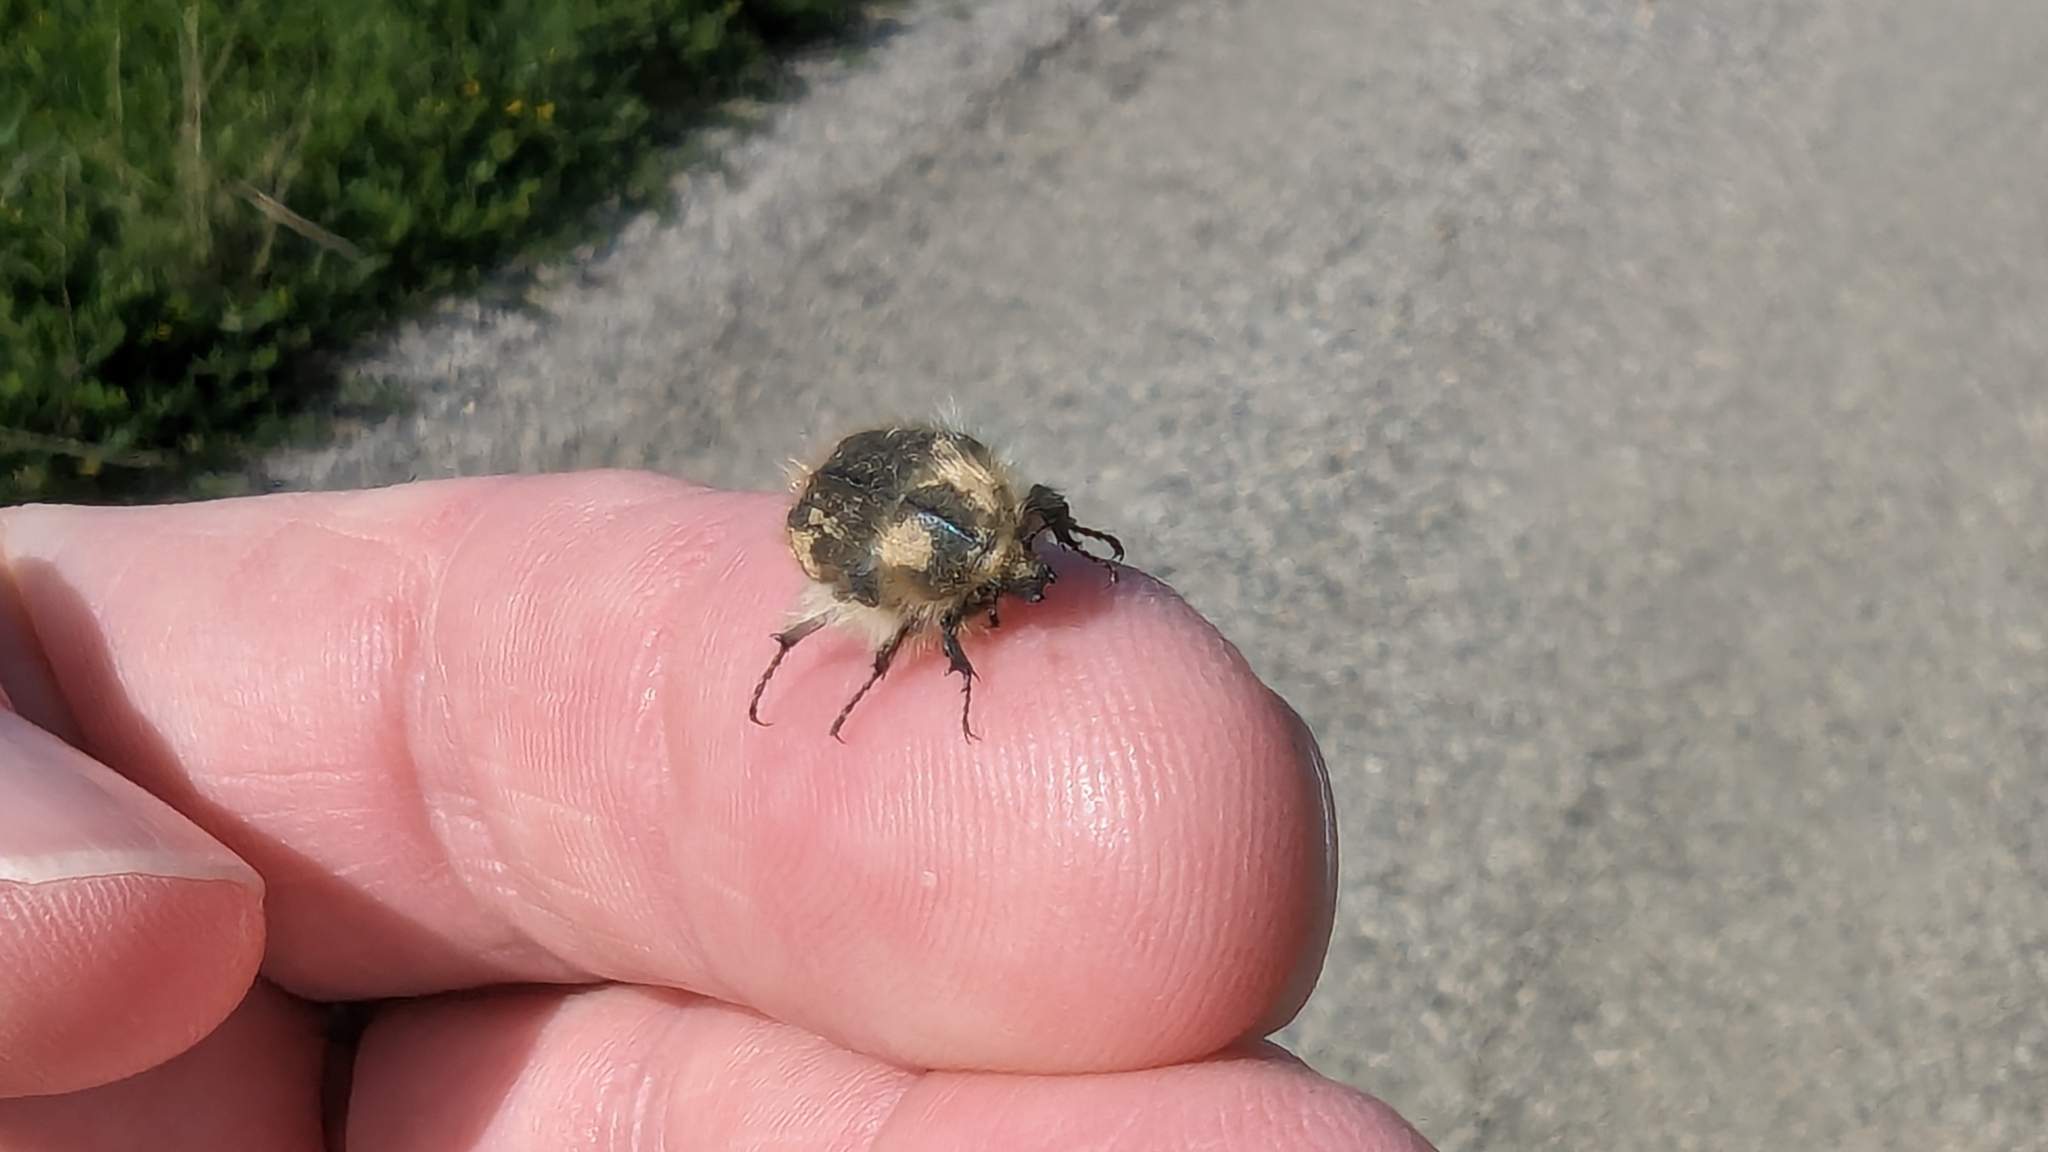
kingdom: Animalia
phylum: Arthropoda
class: Insecta
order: Coleoptera
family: Scarabaeidae
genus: Tropinota
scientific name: Tropinota hirta
